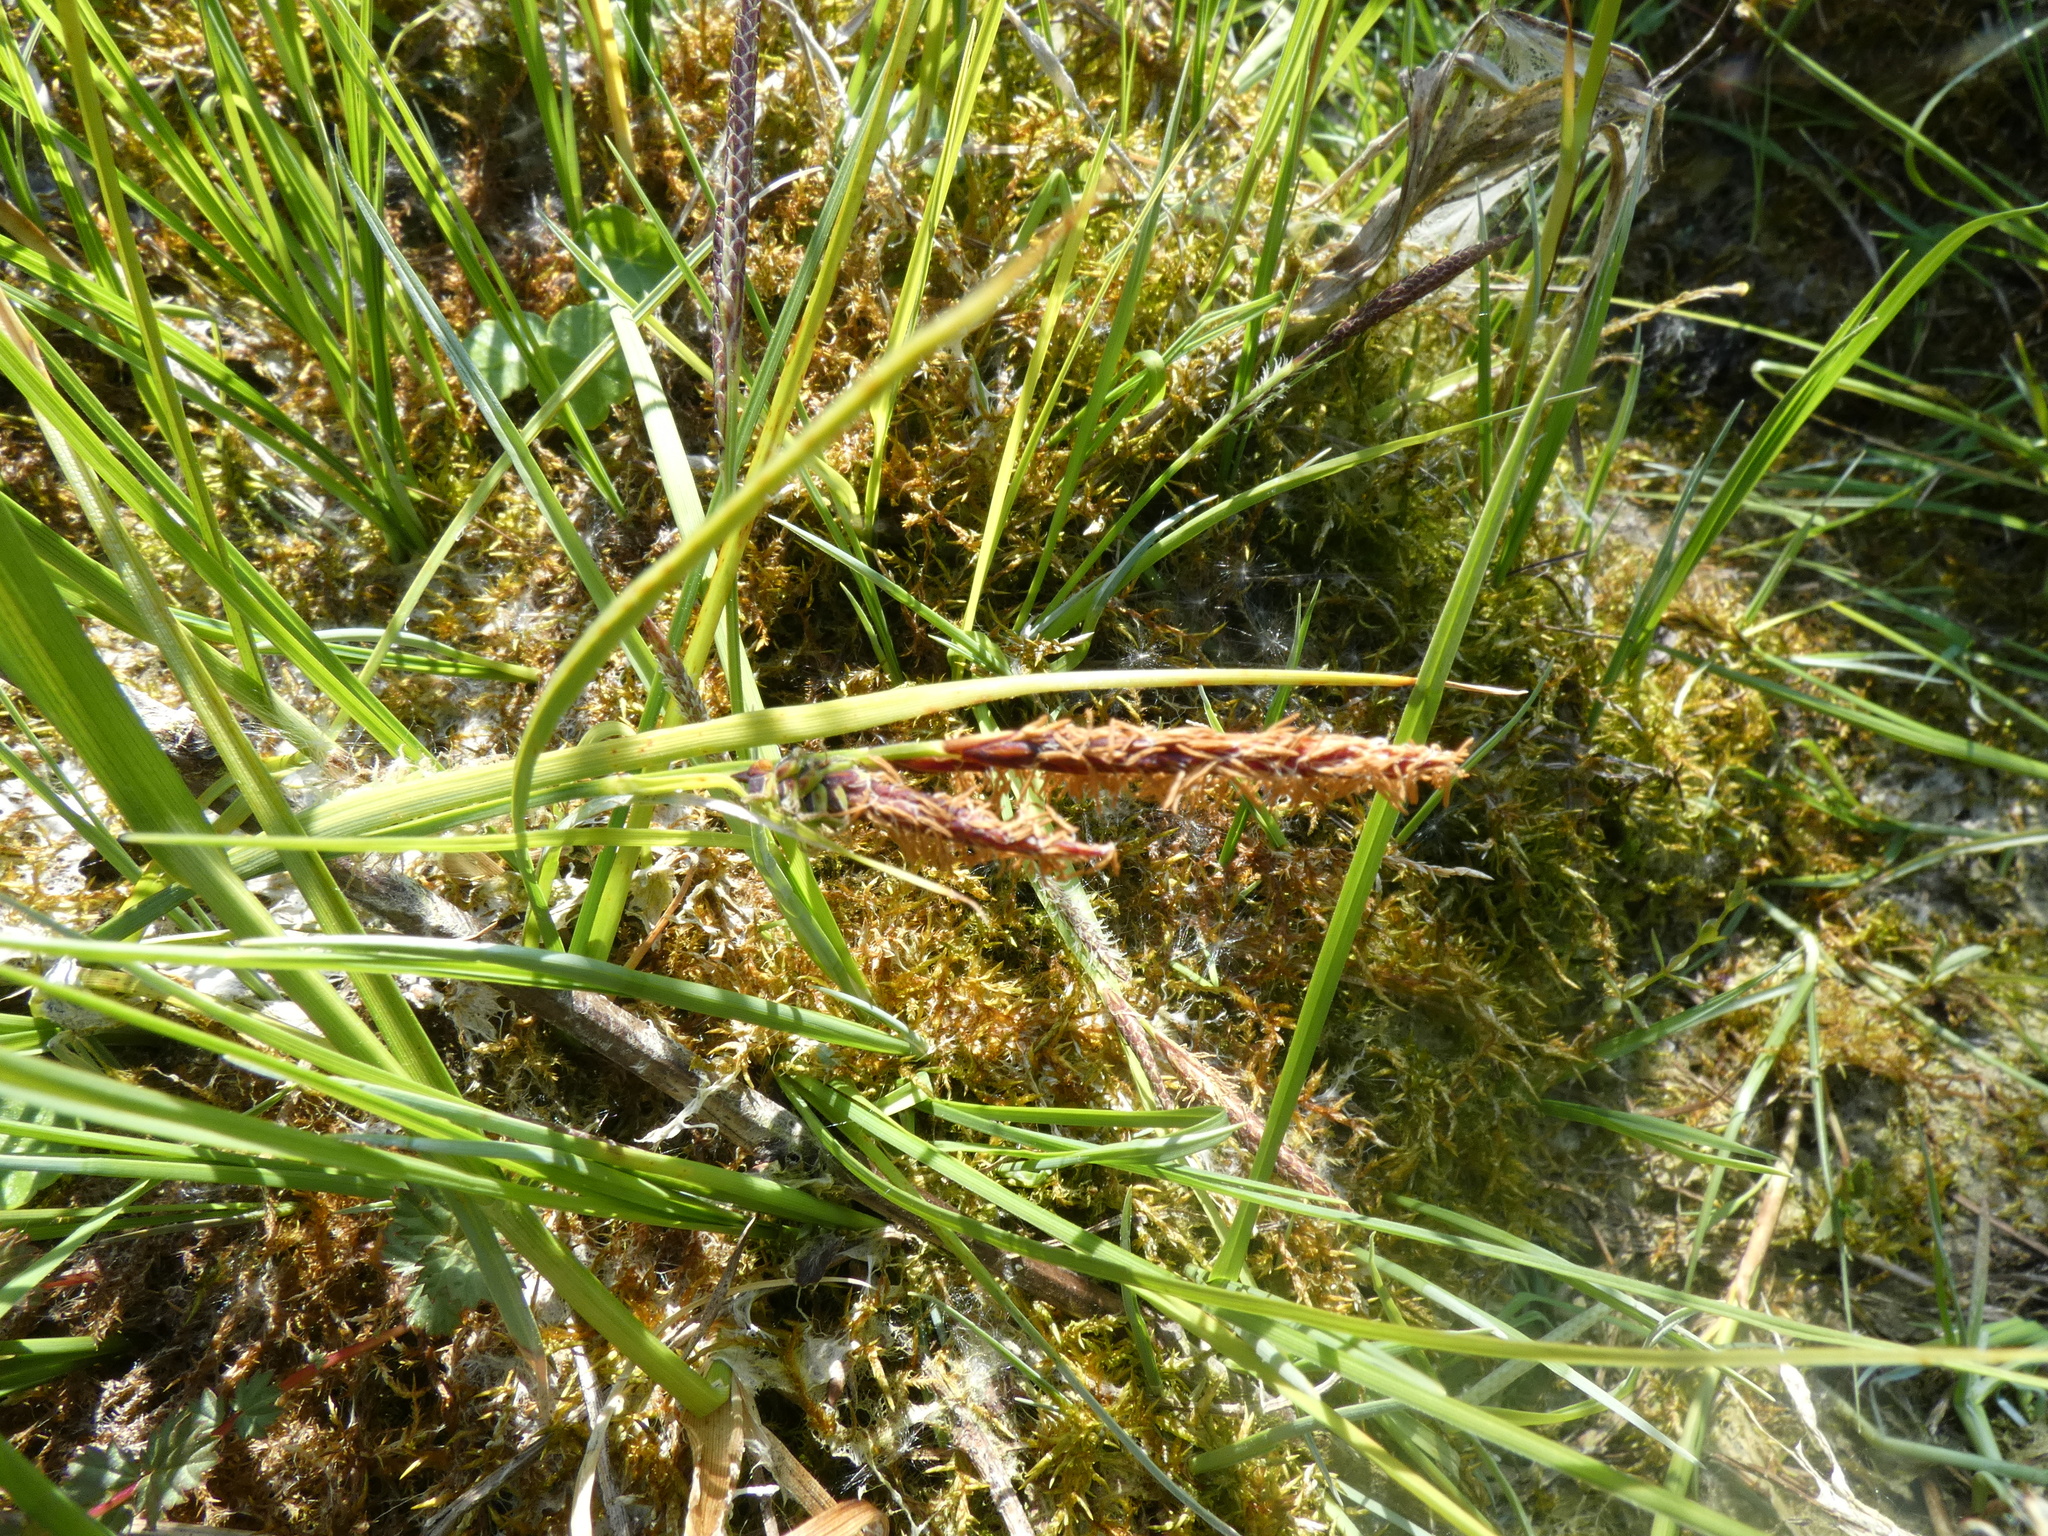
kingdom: Plantae
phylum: Tracheophyta
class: Liliopsida
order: Poales
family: Cyperaceae
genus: Carex
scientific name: Carex nigra
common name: Common sedge
